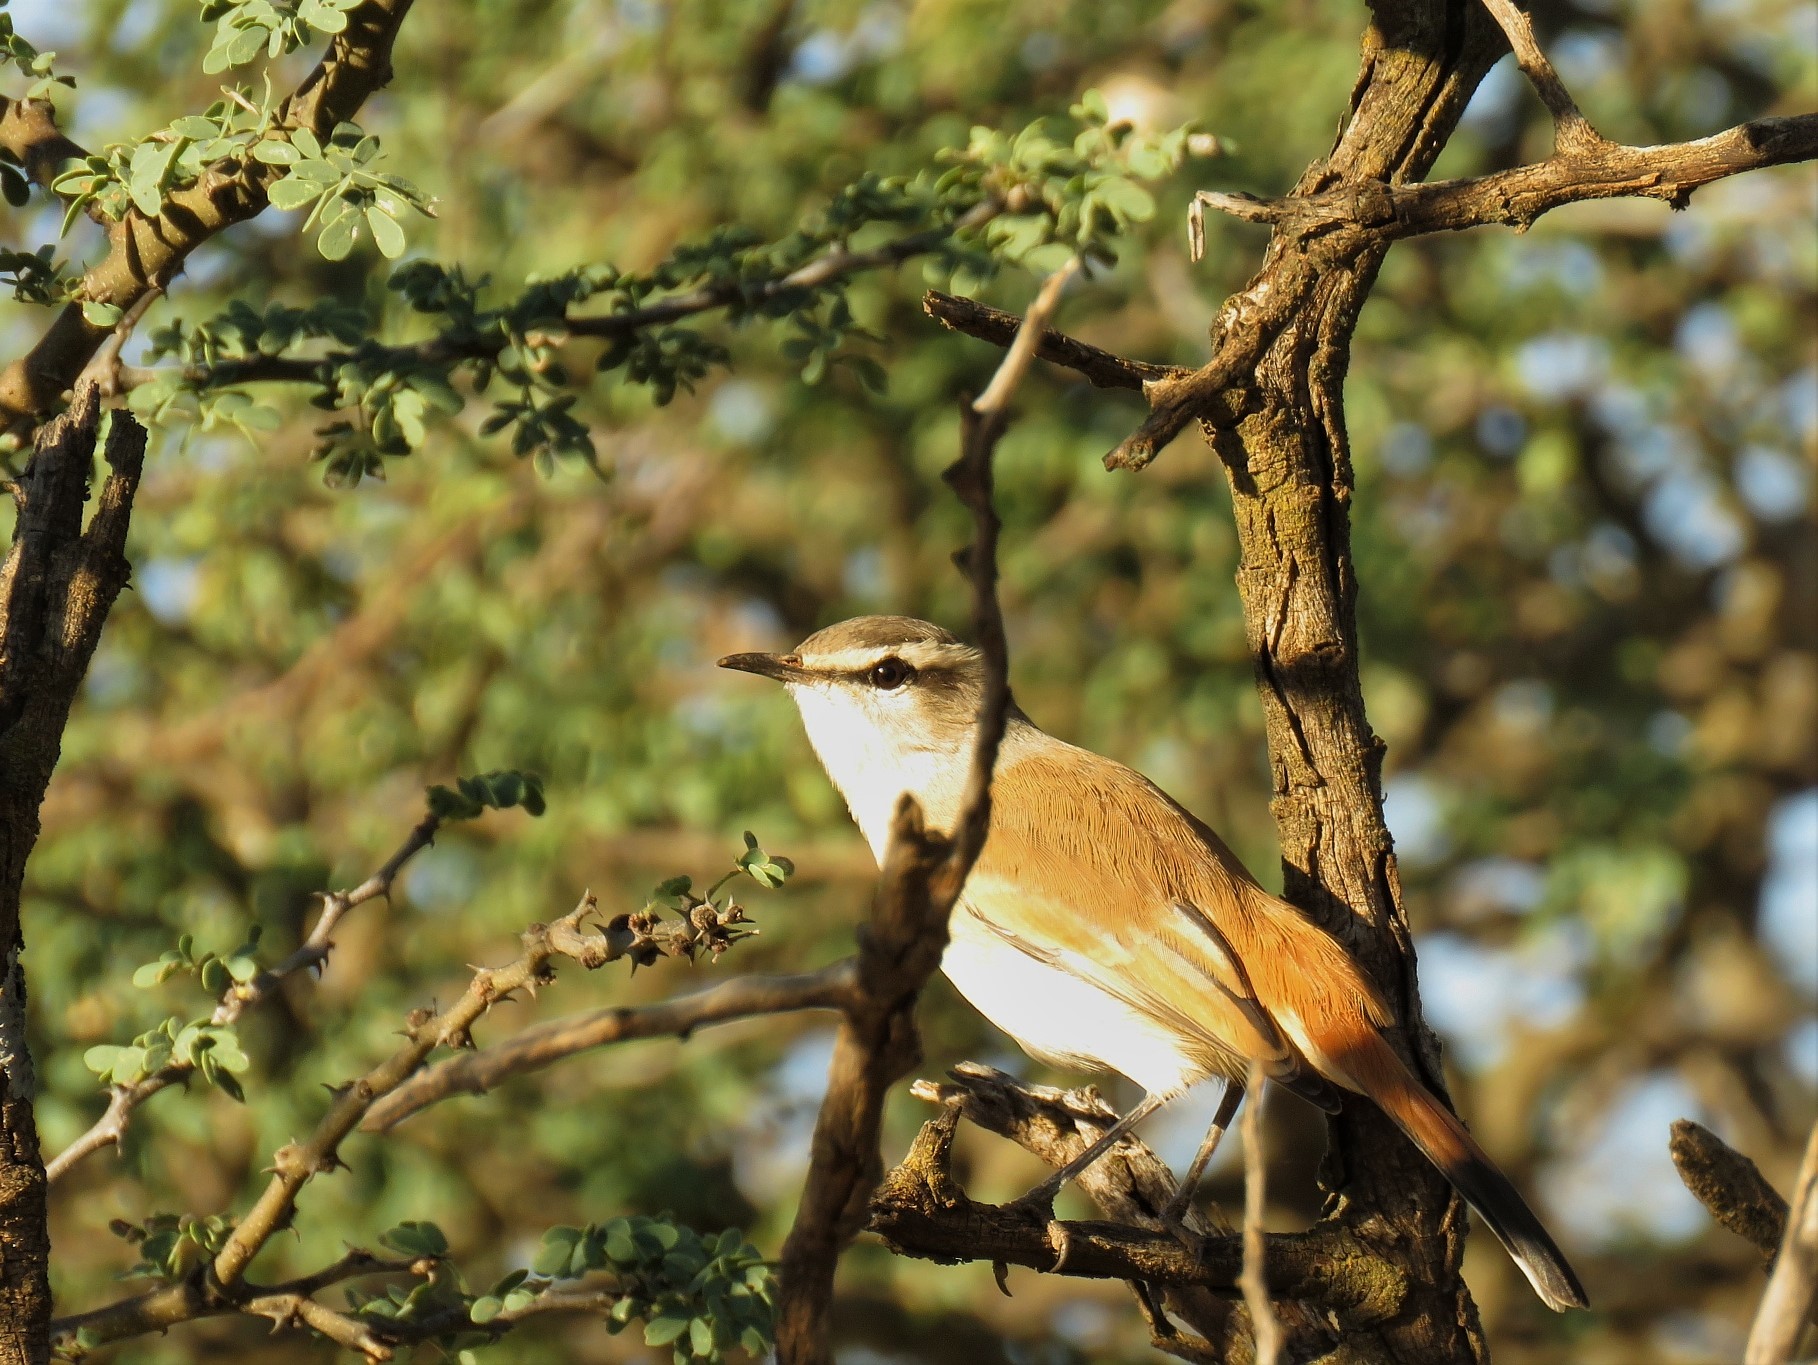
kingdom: Animalia
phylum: Chordata
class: Aves
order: Passeriformes
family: Muscicapidae
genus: Erythropygia
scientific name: Erythropygia paena
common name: Kalahari scrub robin
